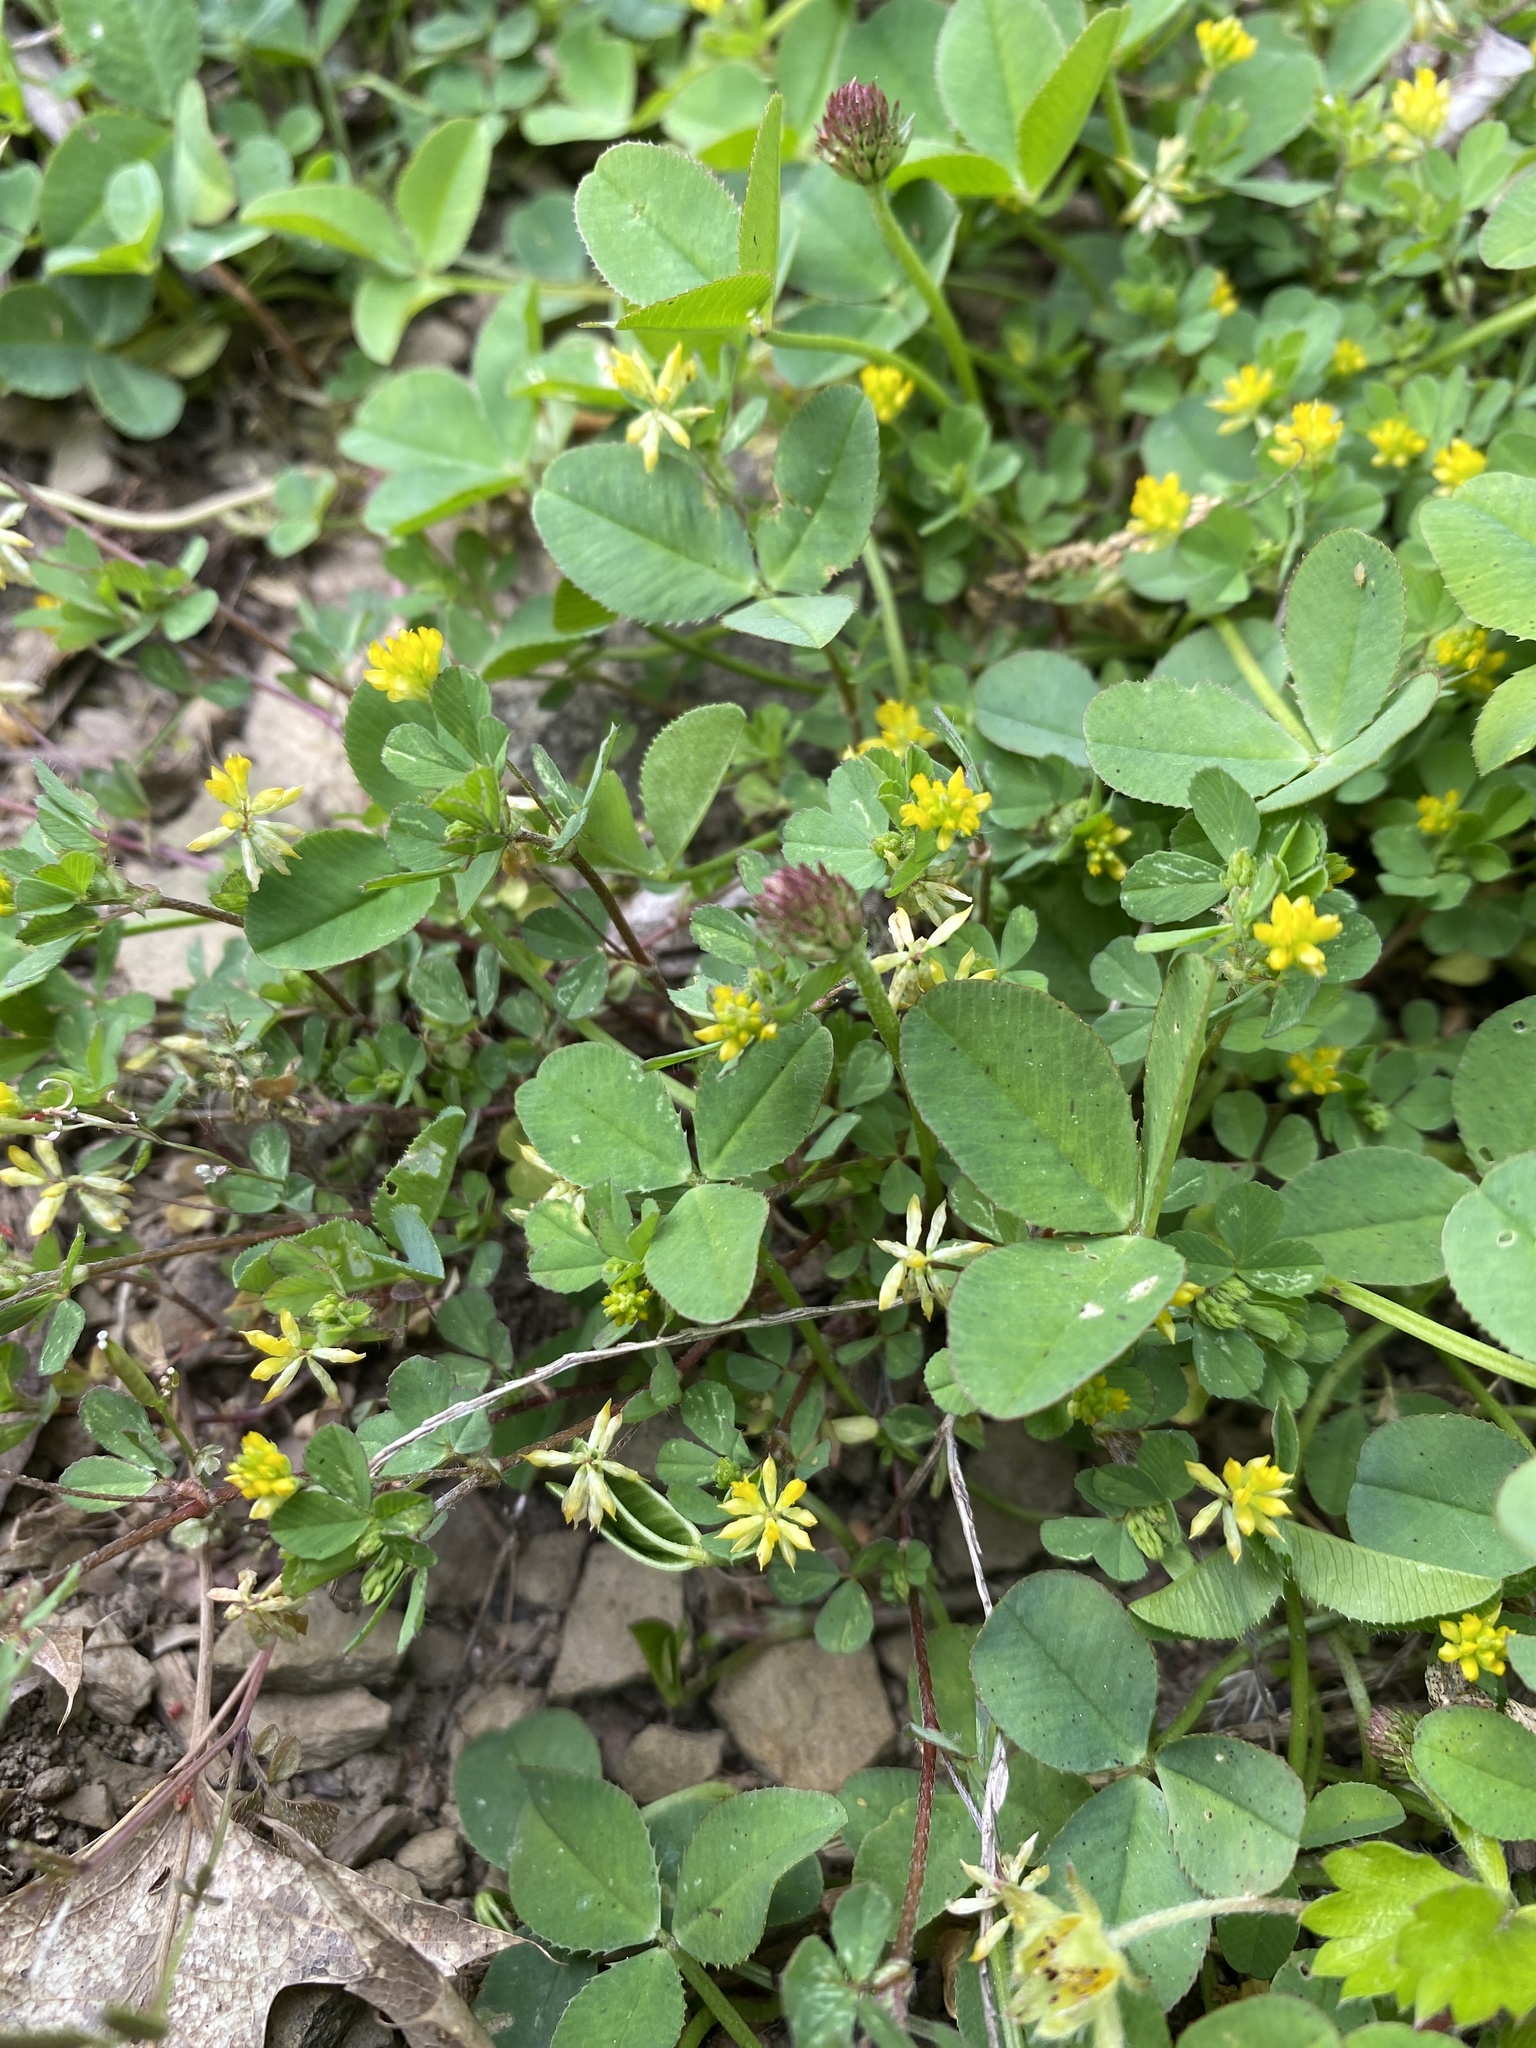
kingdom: Plantae
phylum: Tracheophyta
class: Magnoliopsida
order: Fabales
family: Fabaceae
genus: Trifolium
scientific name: Trifolium dubium
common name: Suckling clover
